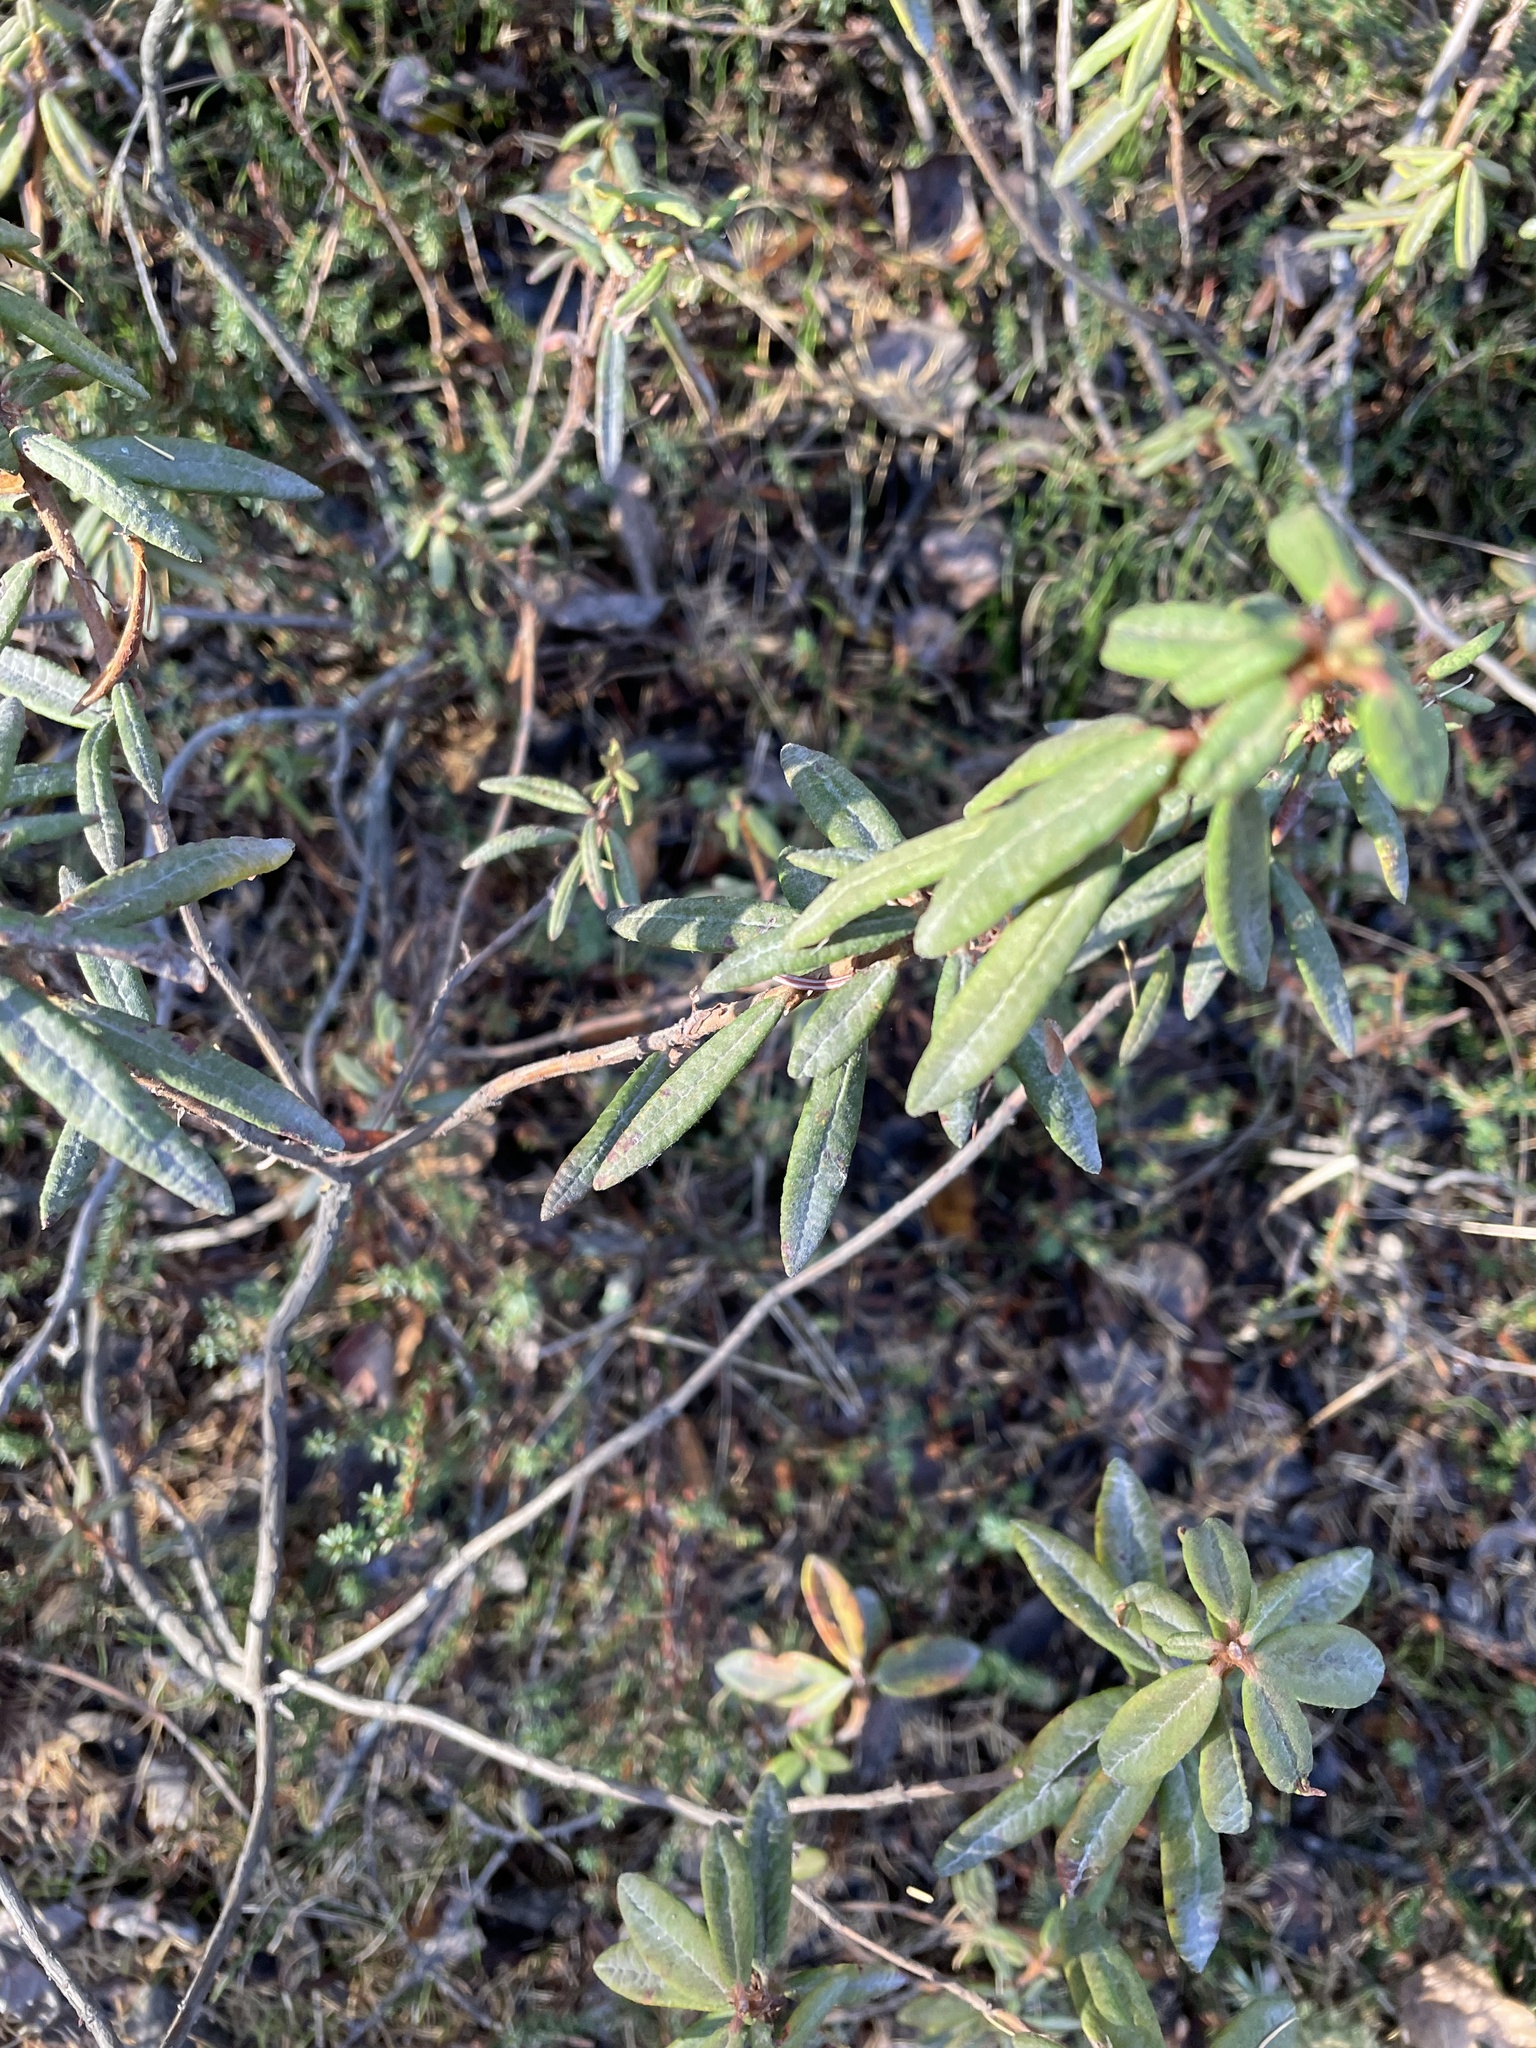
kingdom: Plantae
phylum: Tracheophyta
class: Magnoliopsida
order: Ericales
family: Ericaceae
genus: Rhododendron
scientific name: Rhododendron groenlandicum
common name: Bog labrador tea
